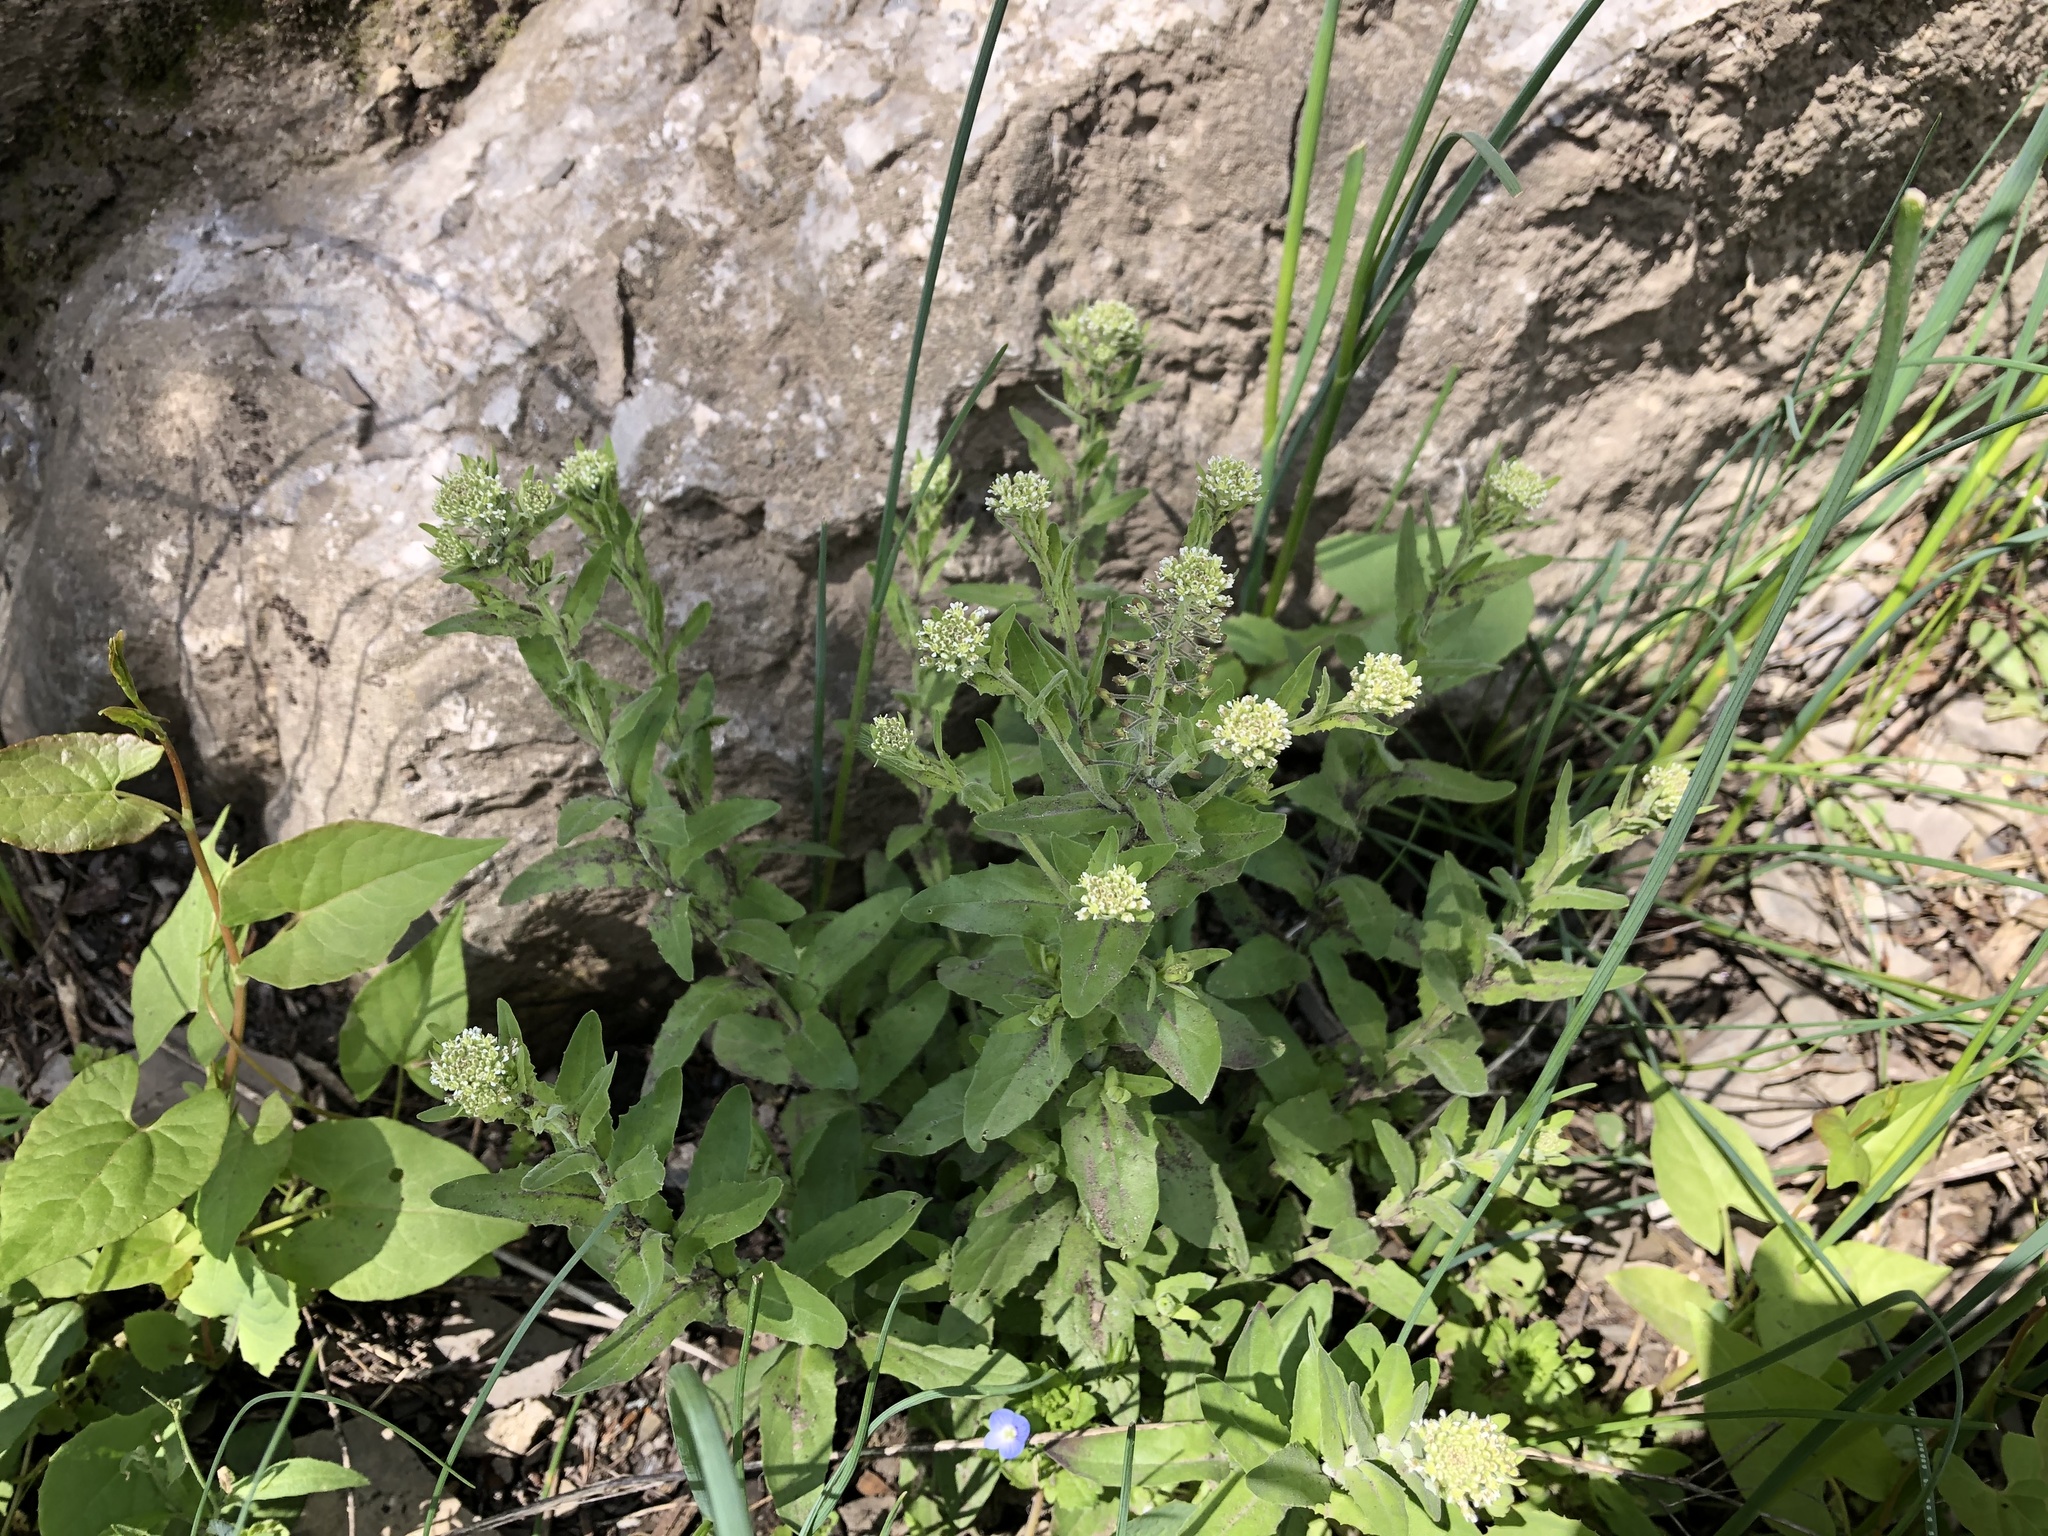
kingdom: Plantae
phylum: Tracheophyta
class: Magnoliopsida
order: Brassicales
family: Brassicaceae
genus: Lepidium
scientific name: Lepidium campestre
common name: Field pepperwort
